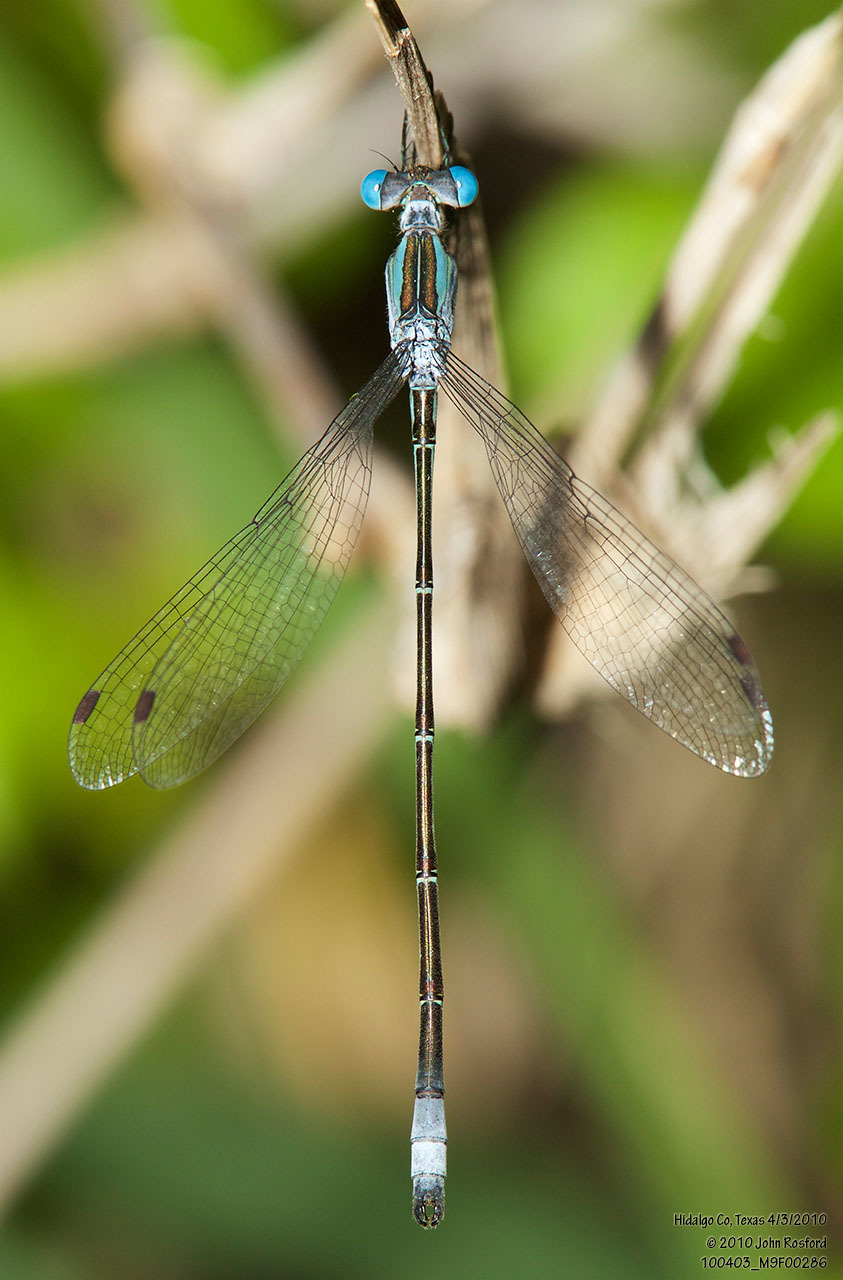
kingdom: Animalia
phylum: Arthropoda
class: Insecta
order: Odonata
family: Lestidae
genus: Lestes
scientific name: Lestes forficula
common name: Rainpool spreadwing
